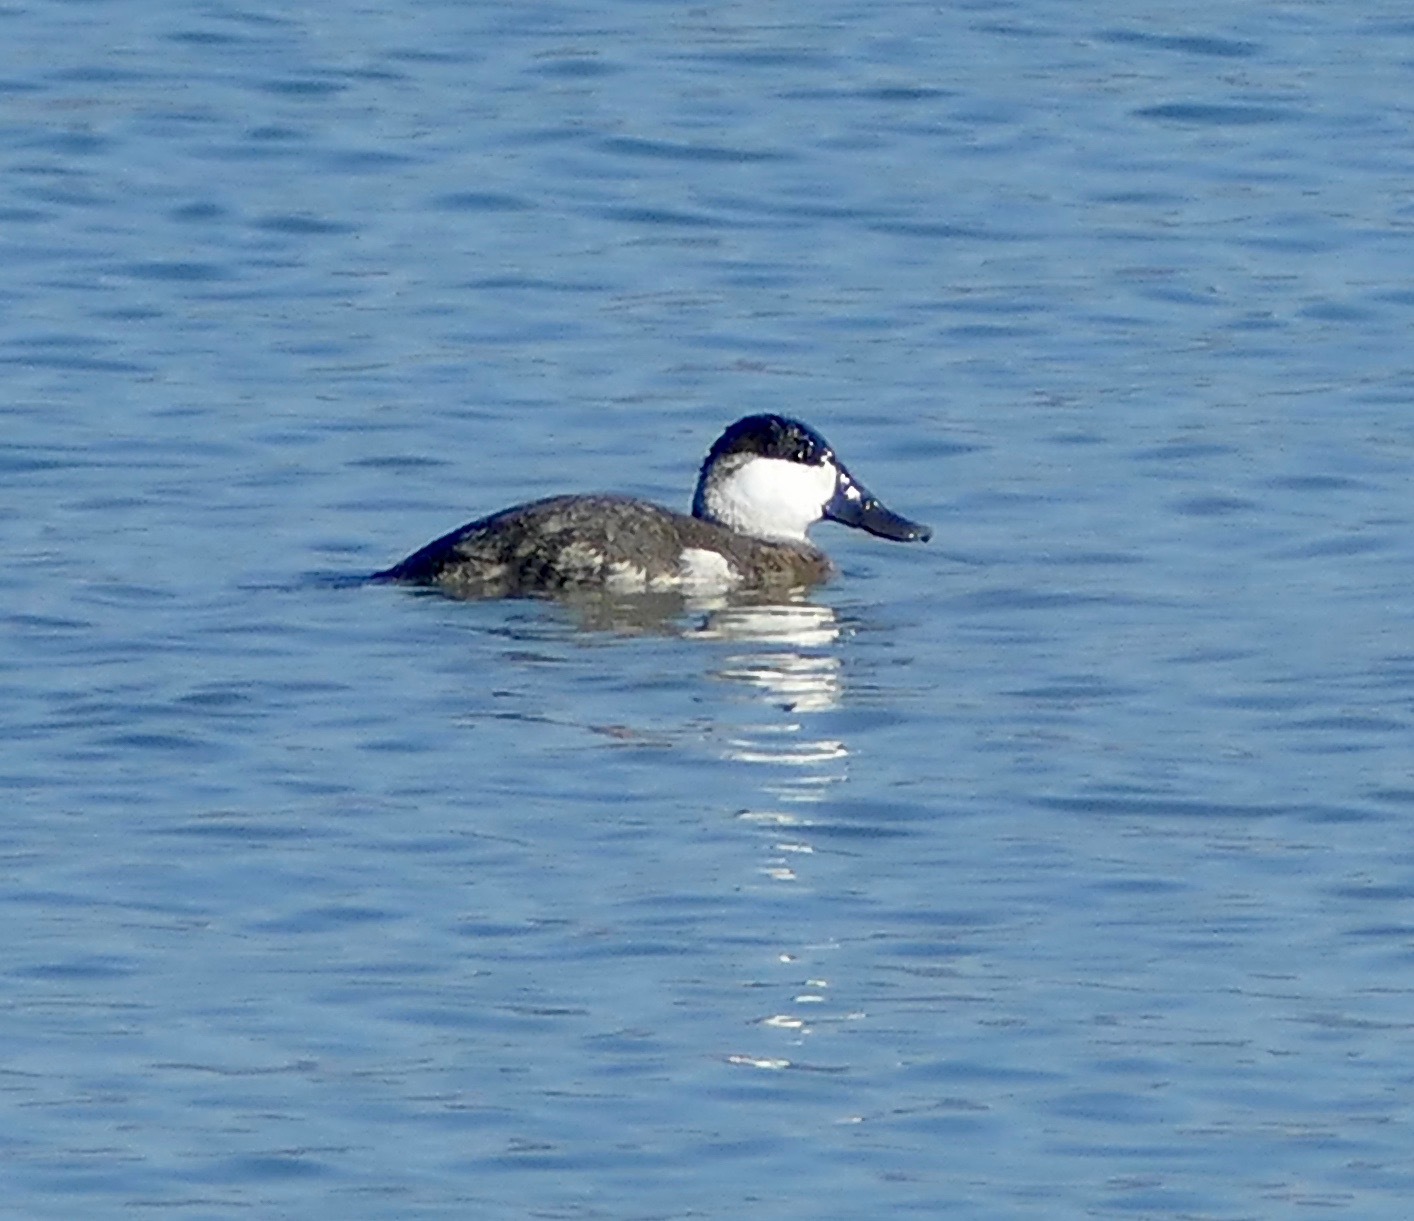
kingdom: Animalia
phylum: Chordata
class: Aves
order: Anseriformes
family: Anatidae
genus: Oxyura
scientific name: Oxyura jamaicensis
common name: Ruddy duck
